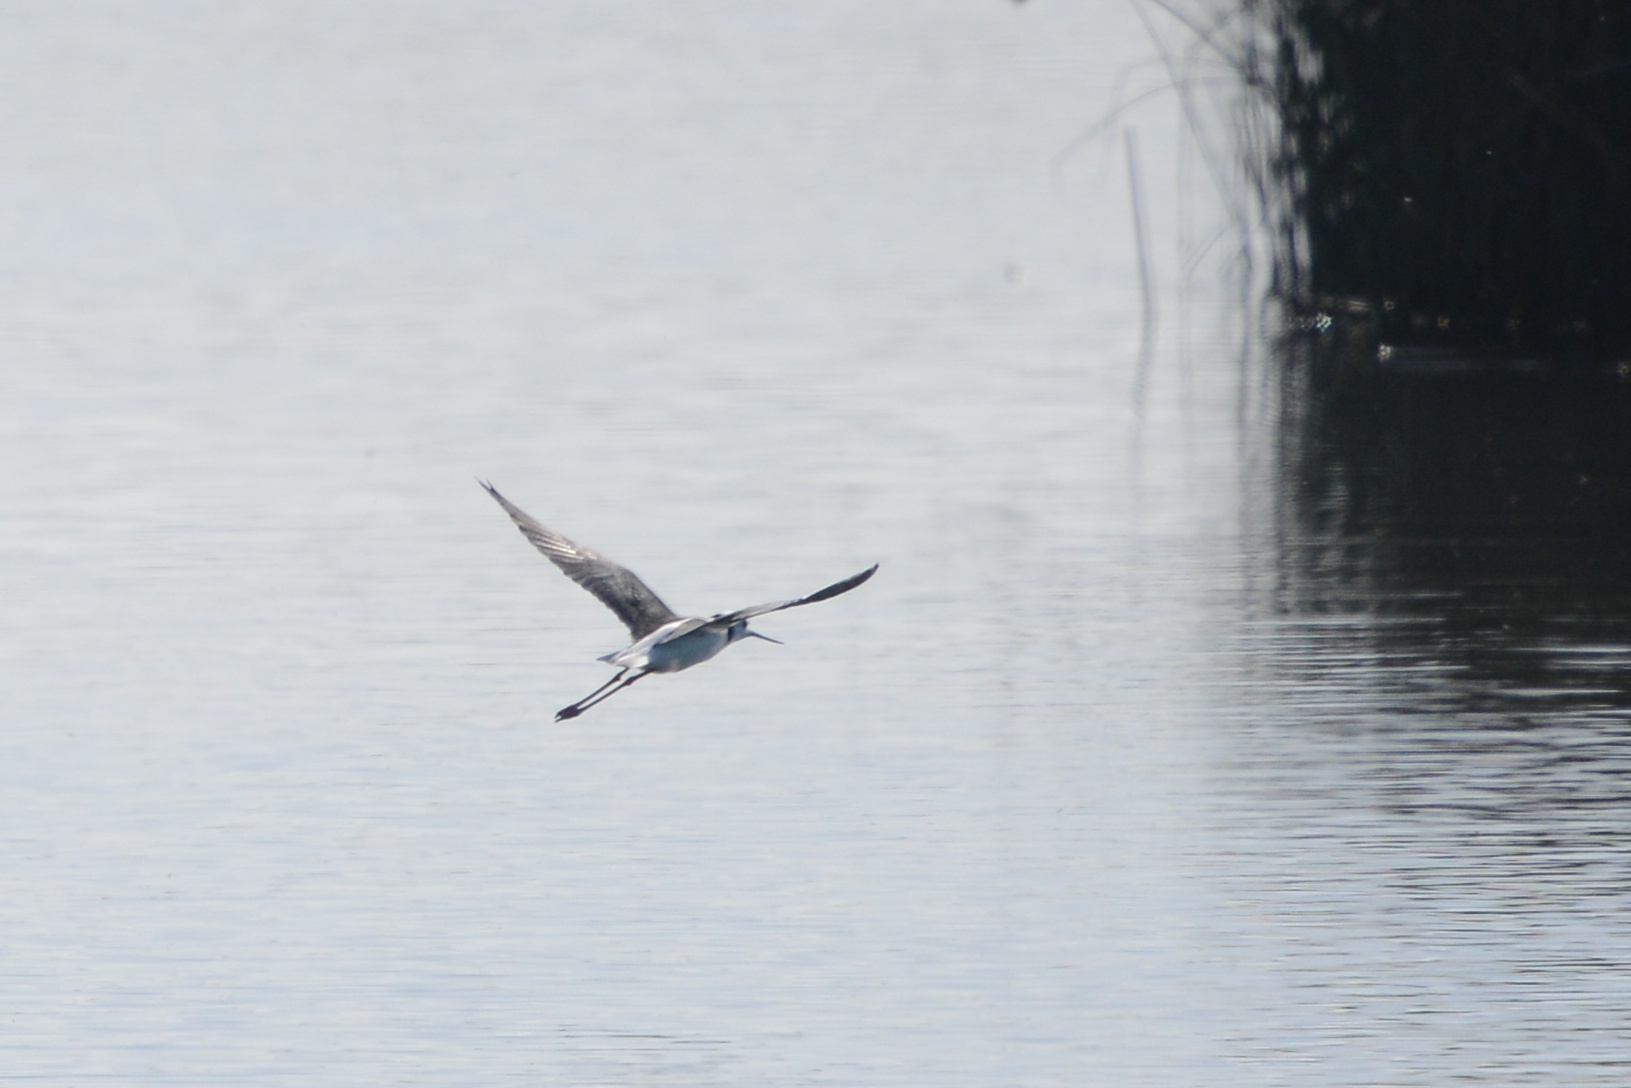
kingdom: Animalia
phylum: Chordata
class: Aves
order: Charadriiformes
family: Recurvirostridae
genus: Himantopus
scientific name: Himantopus leucocephalus
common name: White-headed stilt
